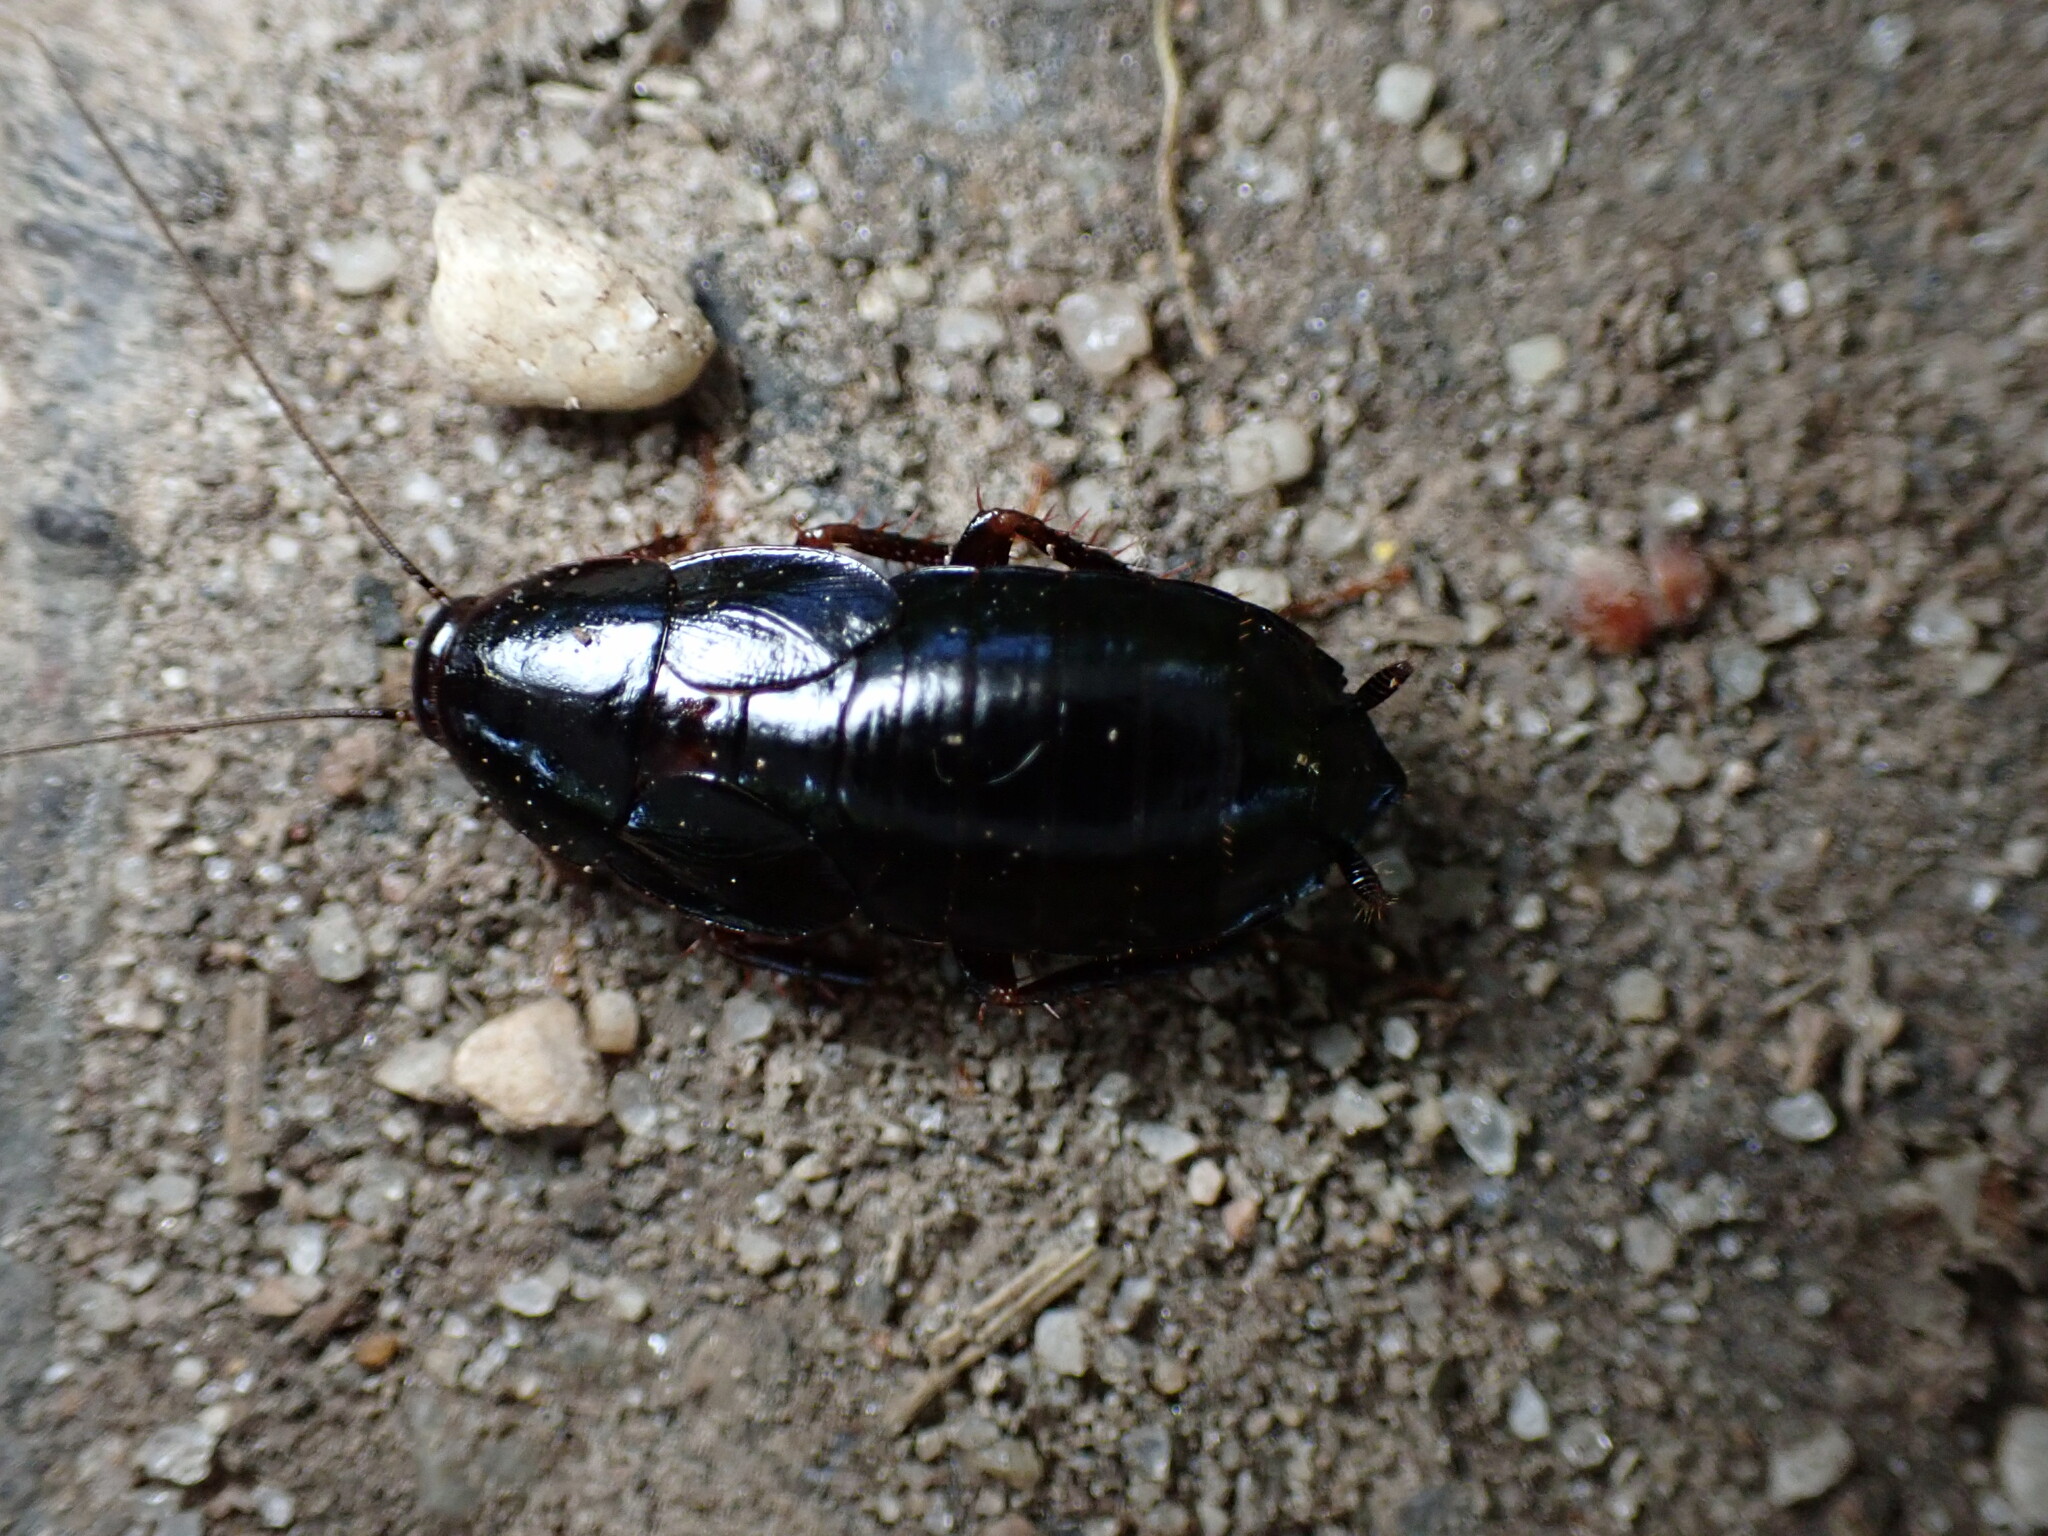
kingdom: Animalia
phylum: Arthropoda
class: Insecta
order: Blattodea
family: Blattidae
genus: Blatta
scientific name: Blatta orientalis
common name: Oriental cockroach
